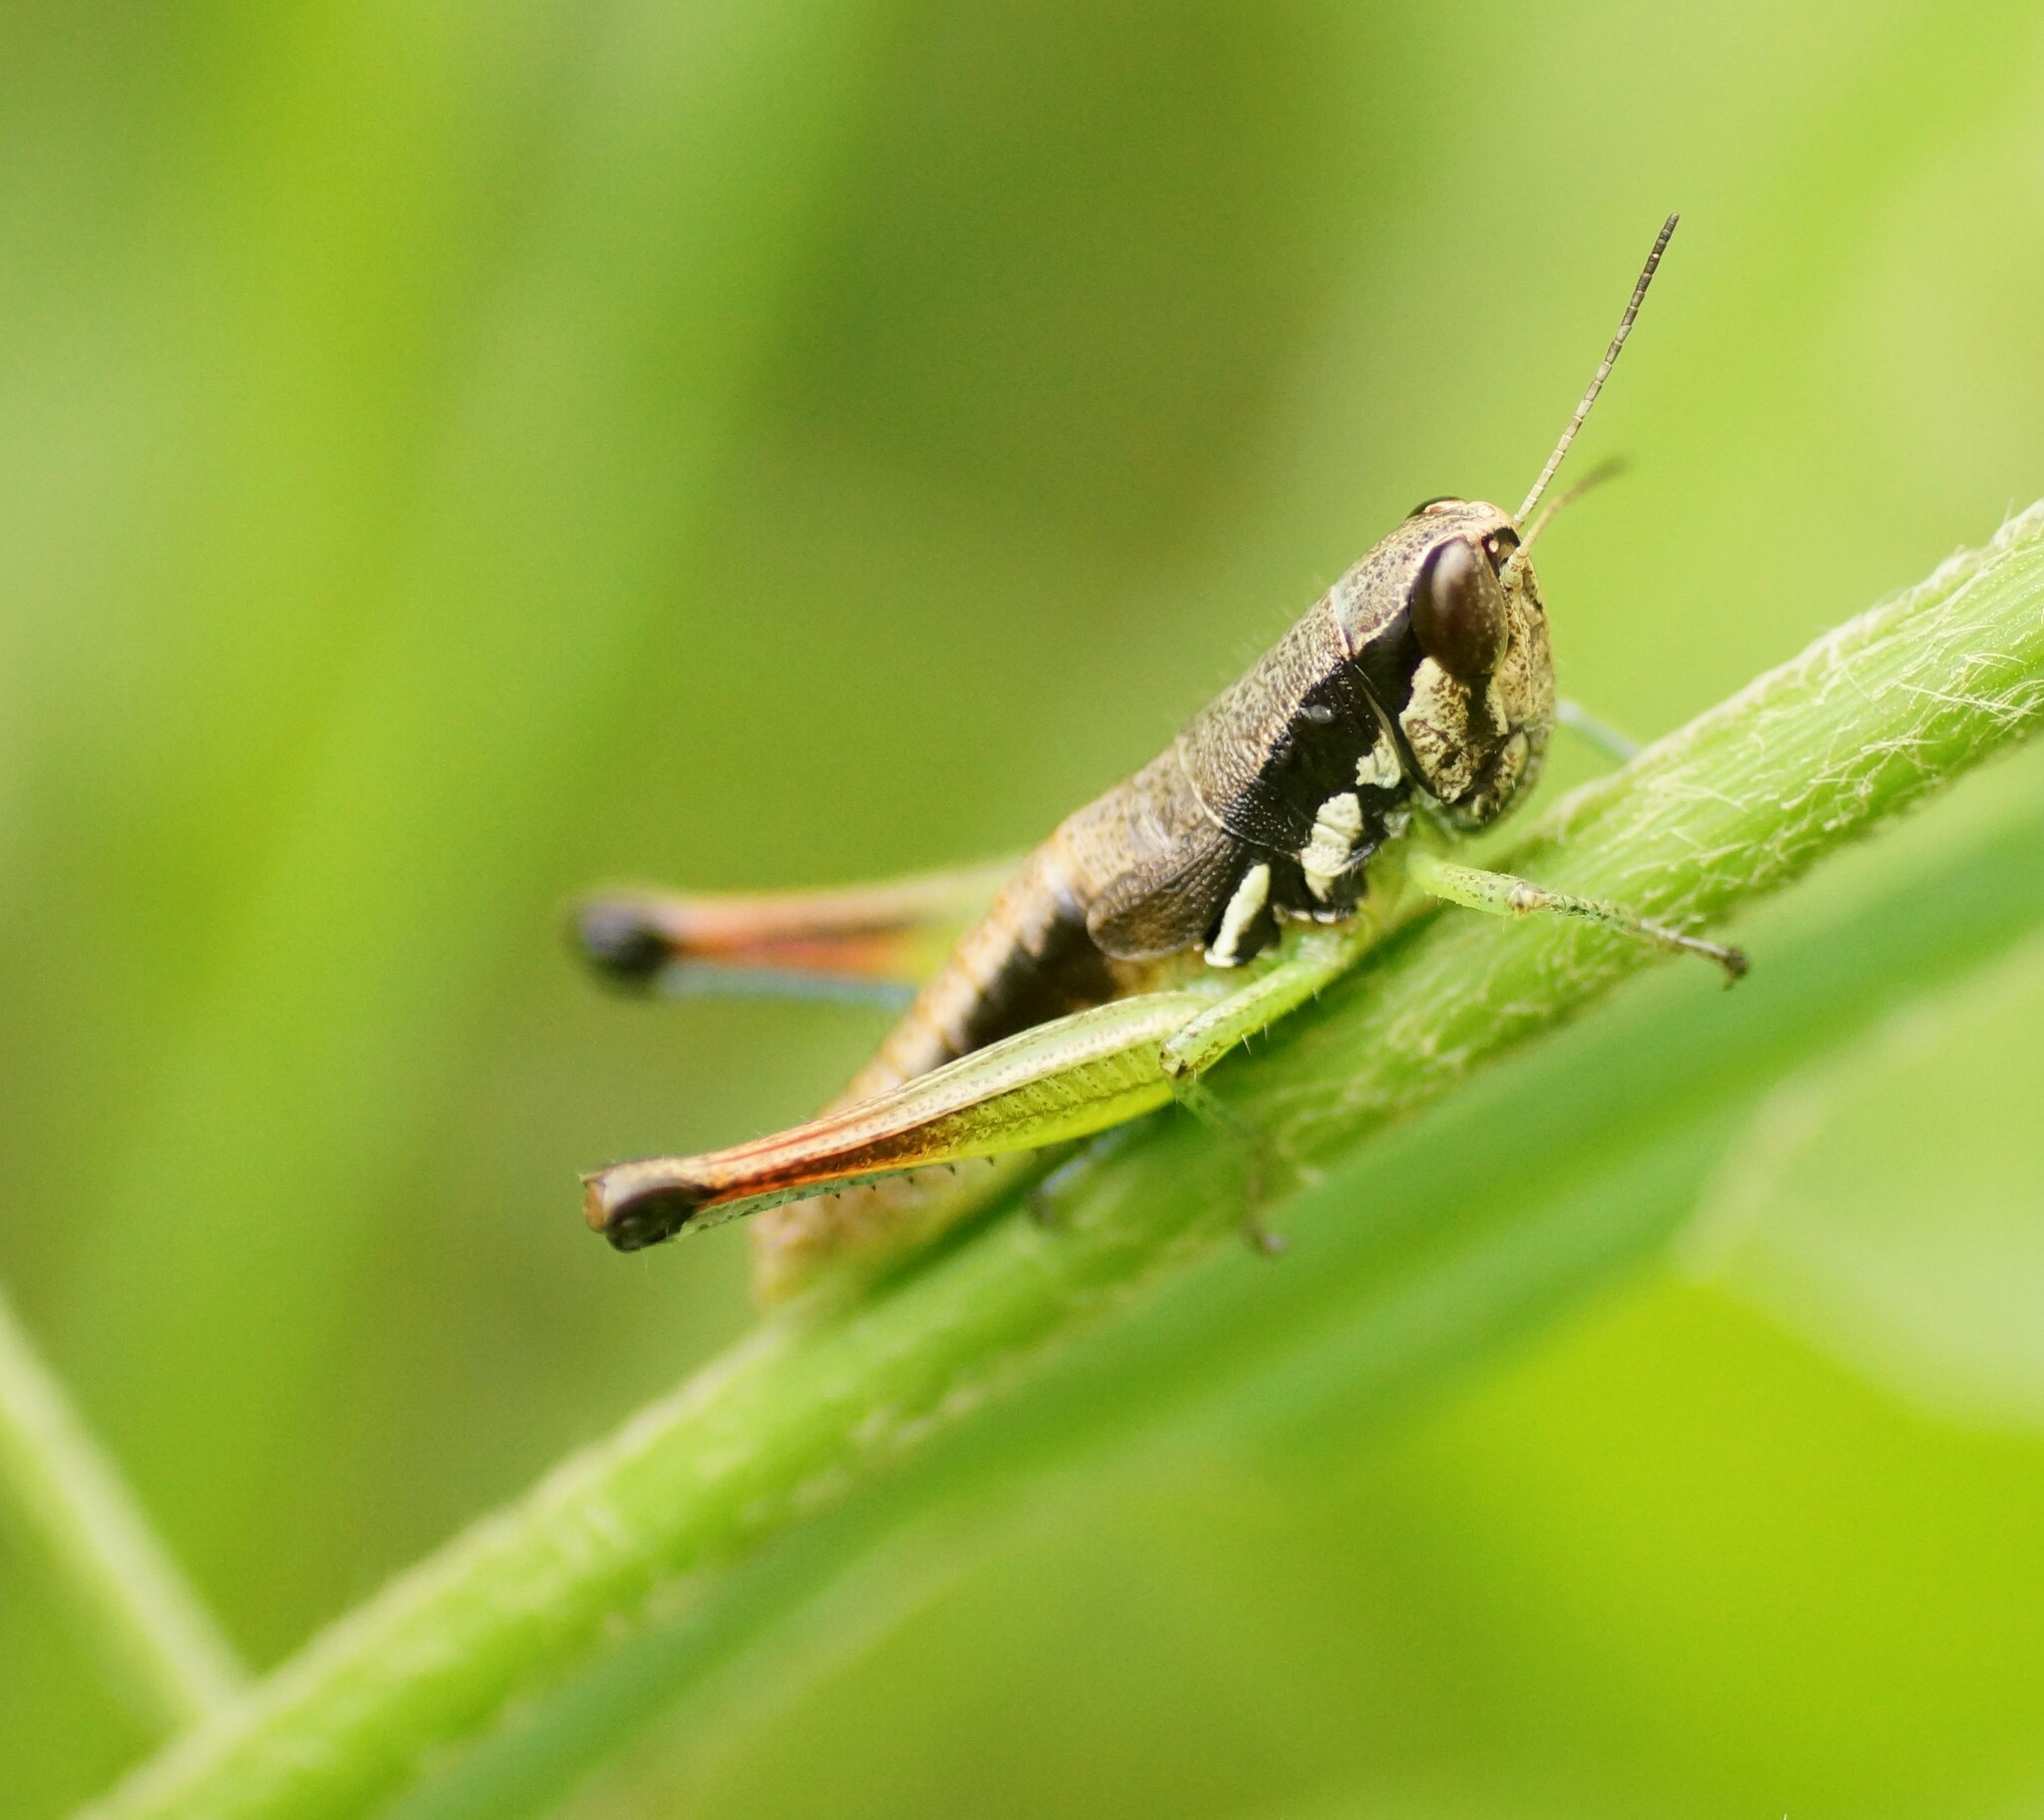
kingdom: Animalia
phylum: Arthropoda
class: Insecta
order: Orthoptera
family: Acrididae
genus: Methiola
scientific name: Methiola picta
